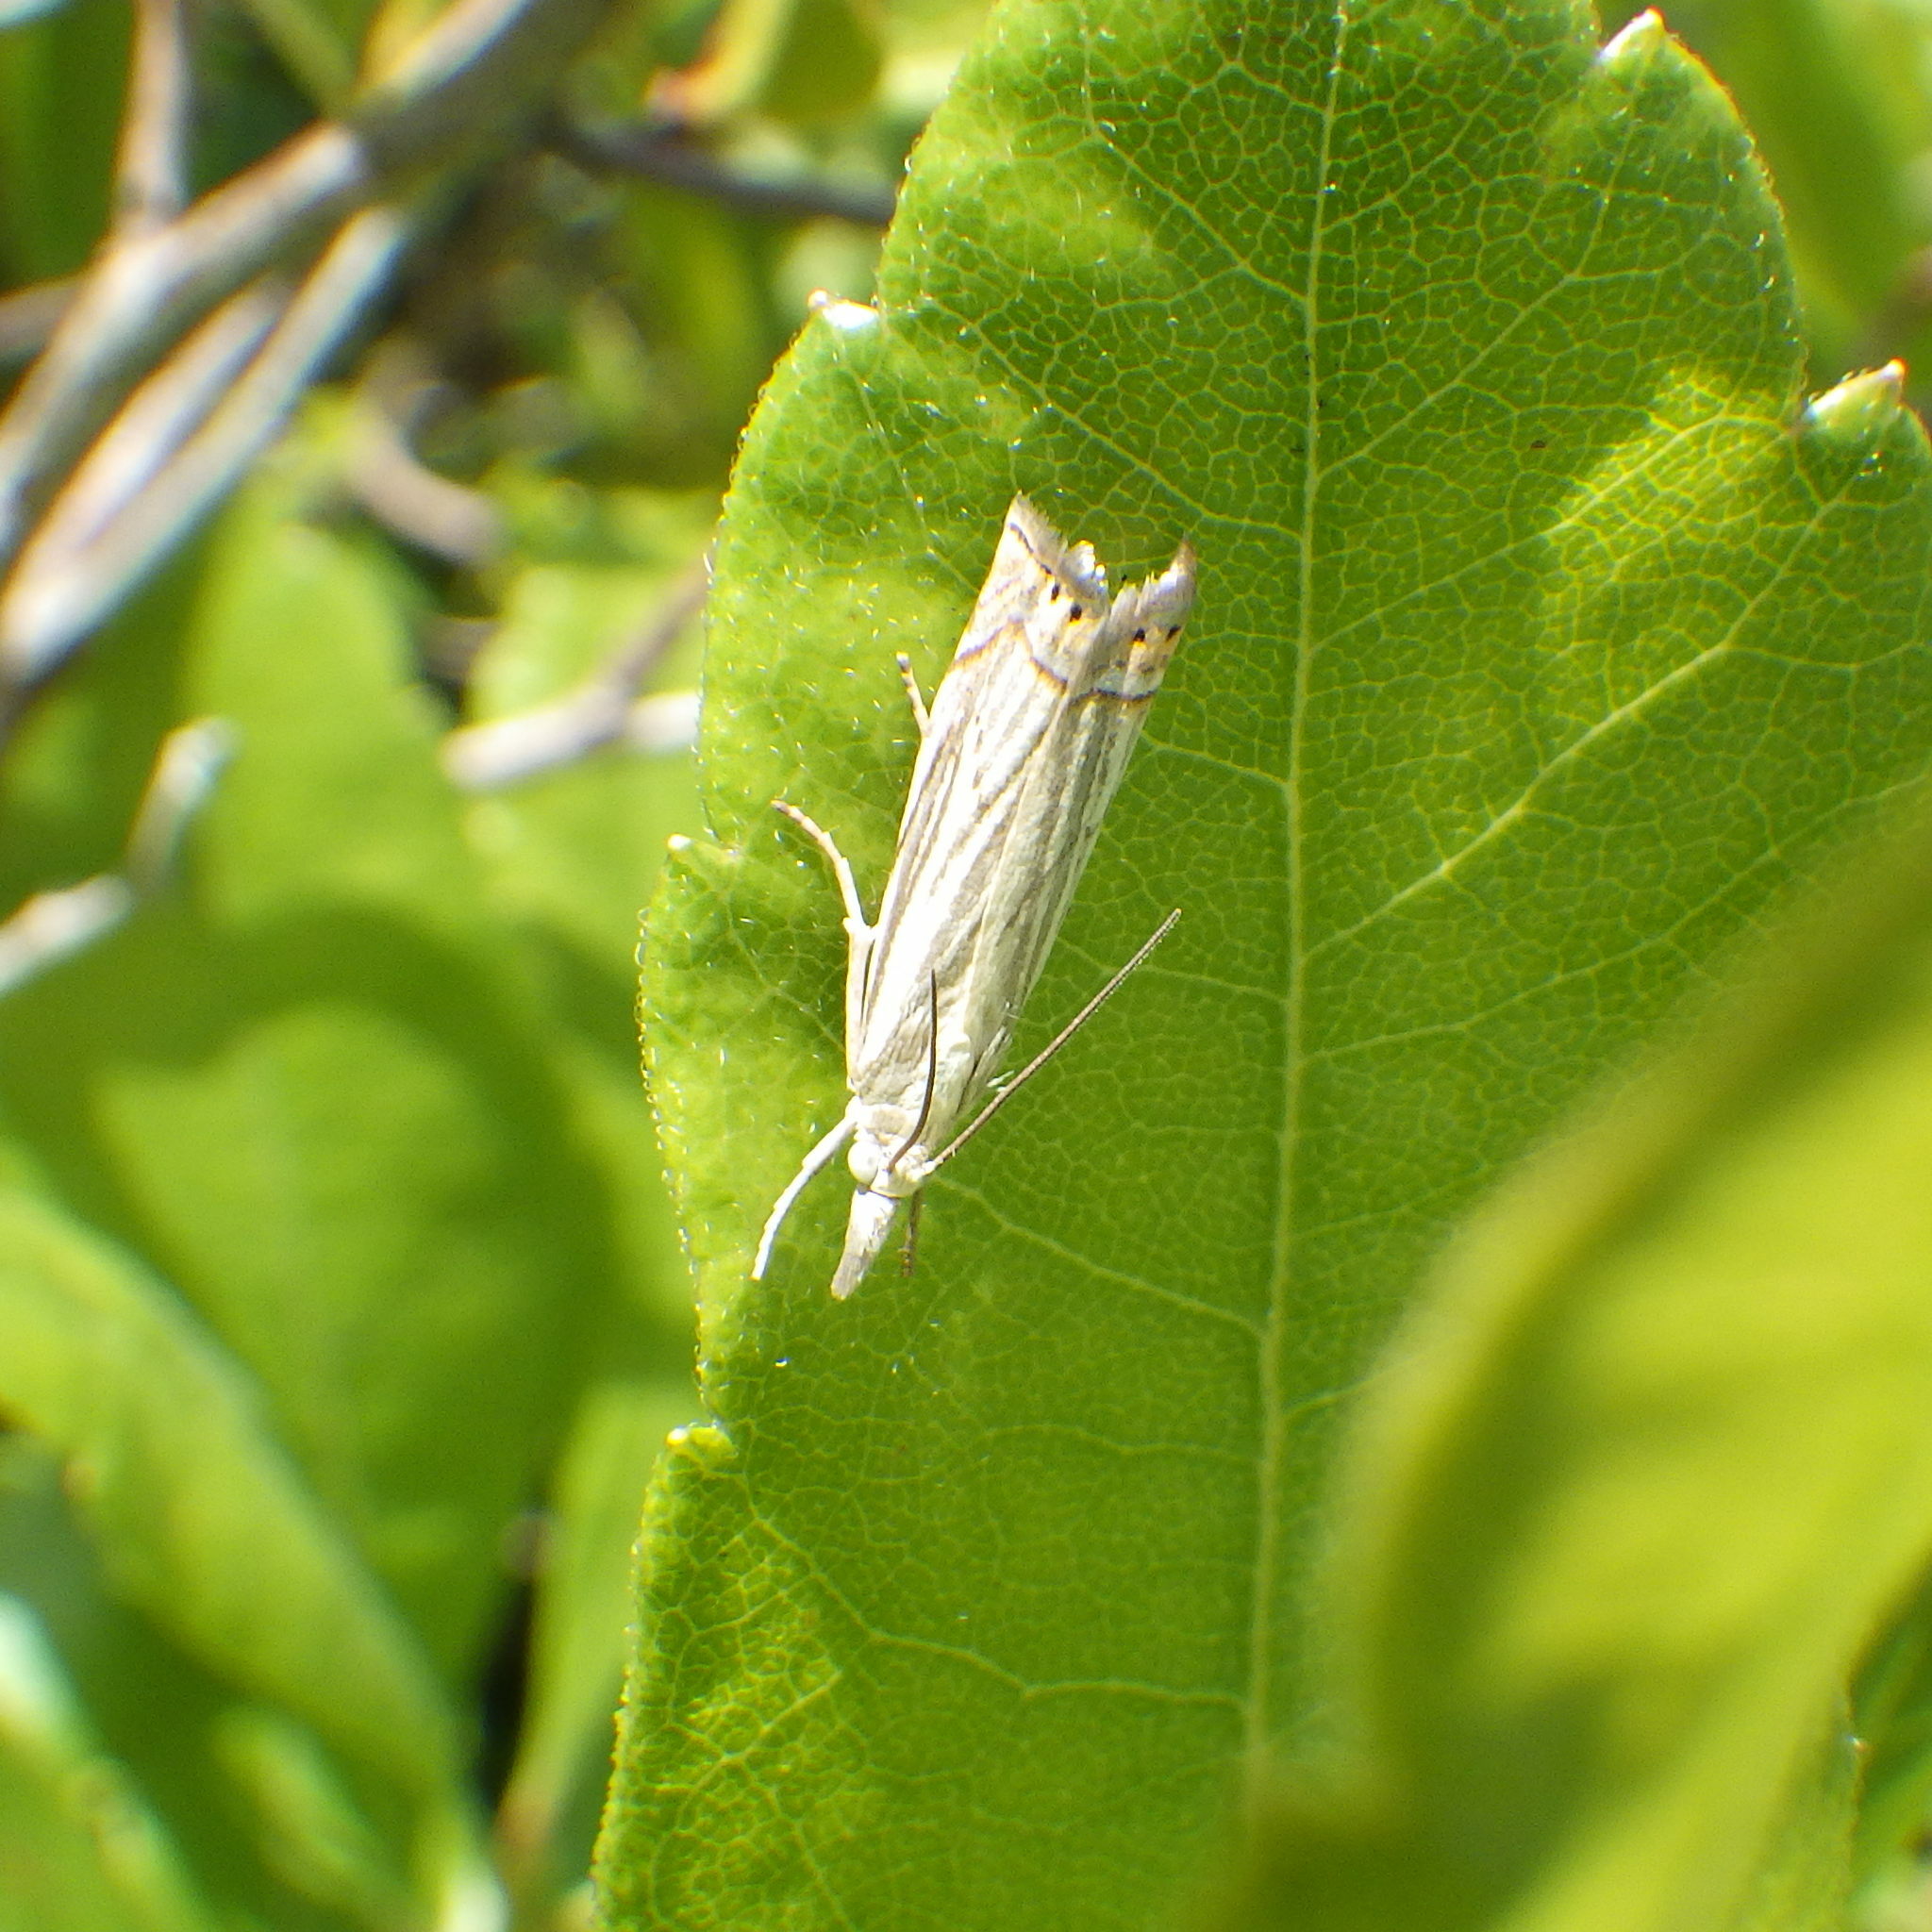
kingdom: Animalia
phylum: Arthropoda
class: Insecta
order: Lepidoptera
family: Crambidae
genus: Chrysoteuchia
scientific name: Chrysoteuchia topiarius
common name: Topiary grass-veneer
